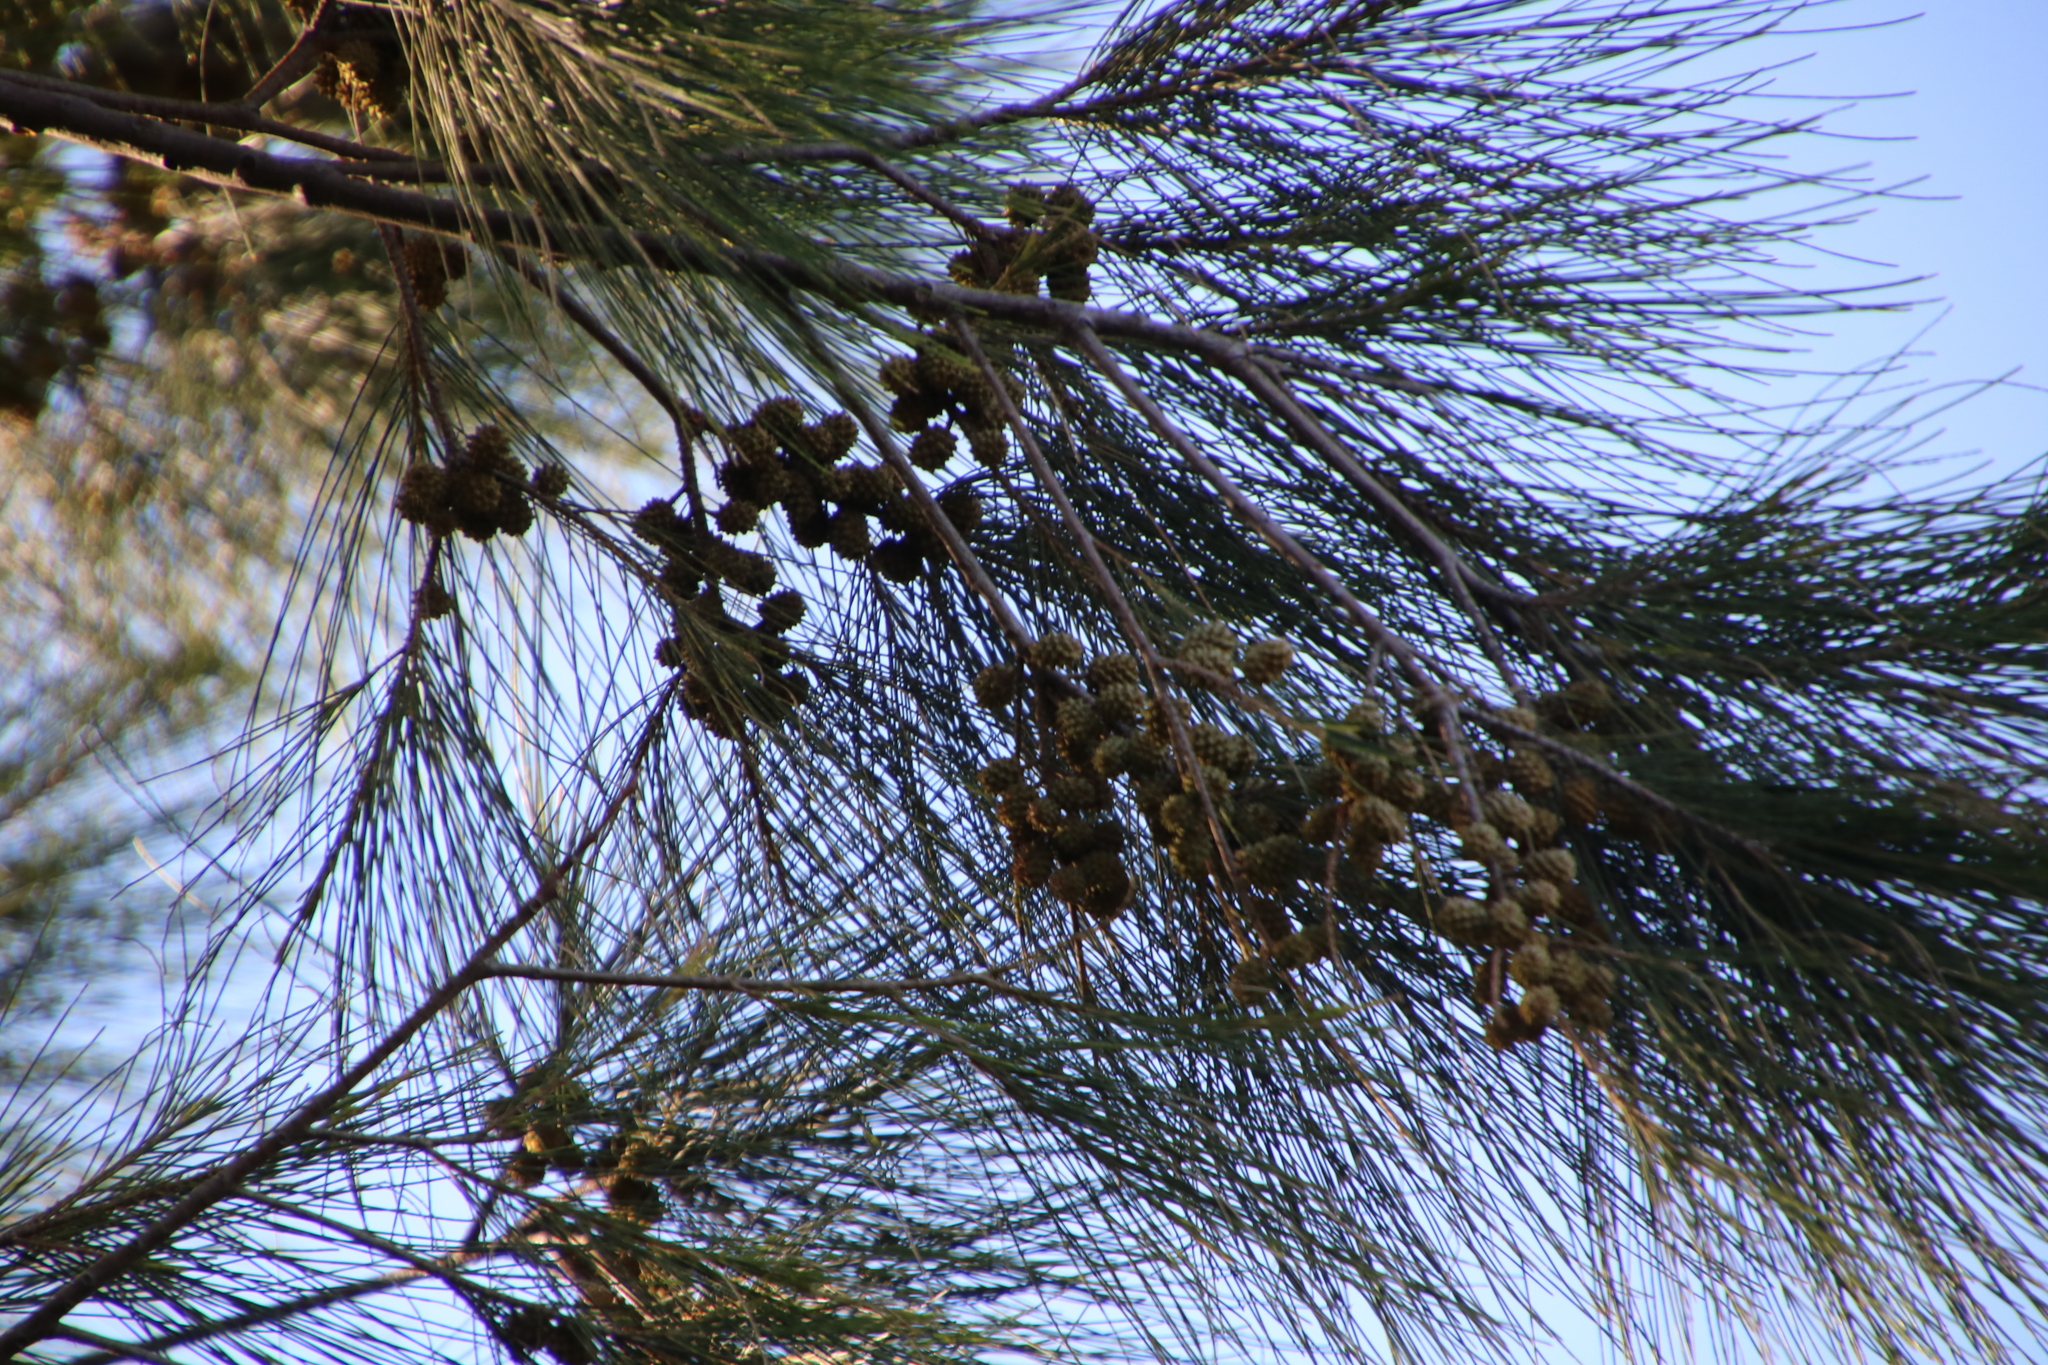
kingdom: Plantae
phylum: Tracheophyta
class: Magnoliopsida
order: Fagales
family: Casuarinaceae
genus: Casuarina
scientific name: Casuarina cunninghamiana
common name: River sheoak
